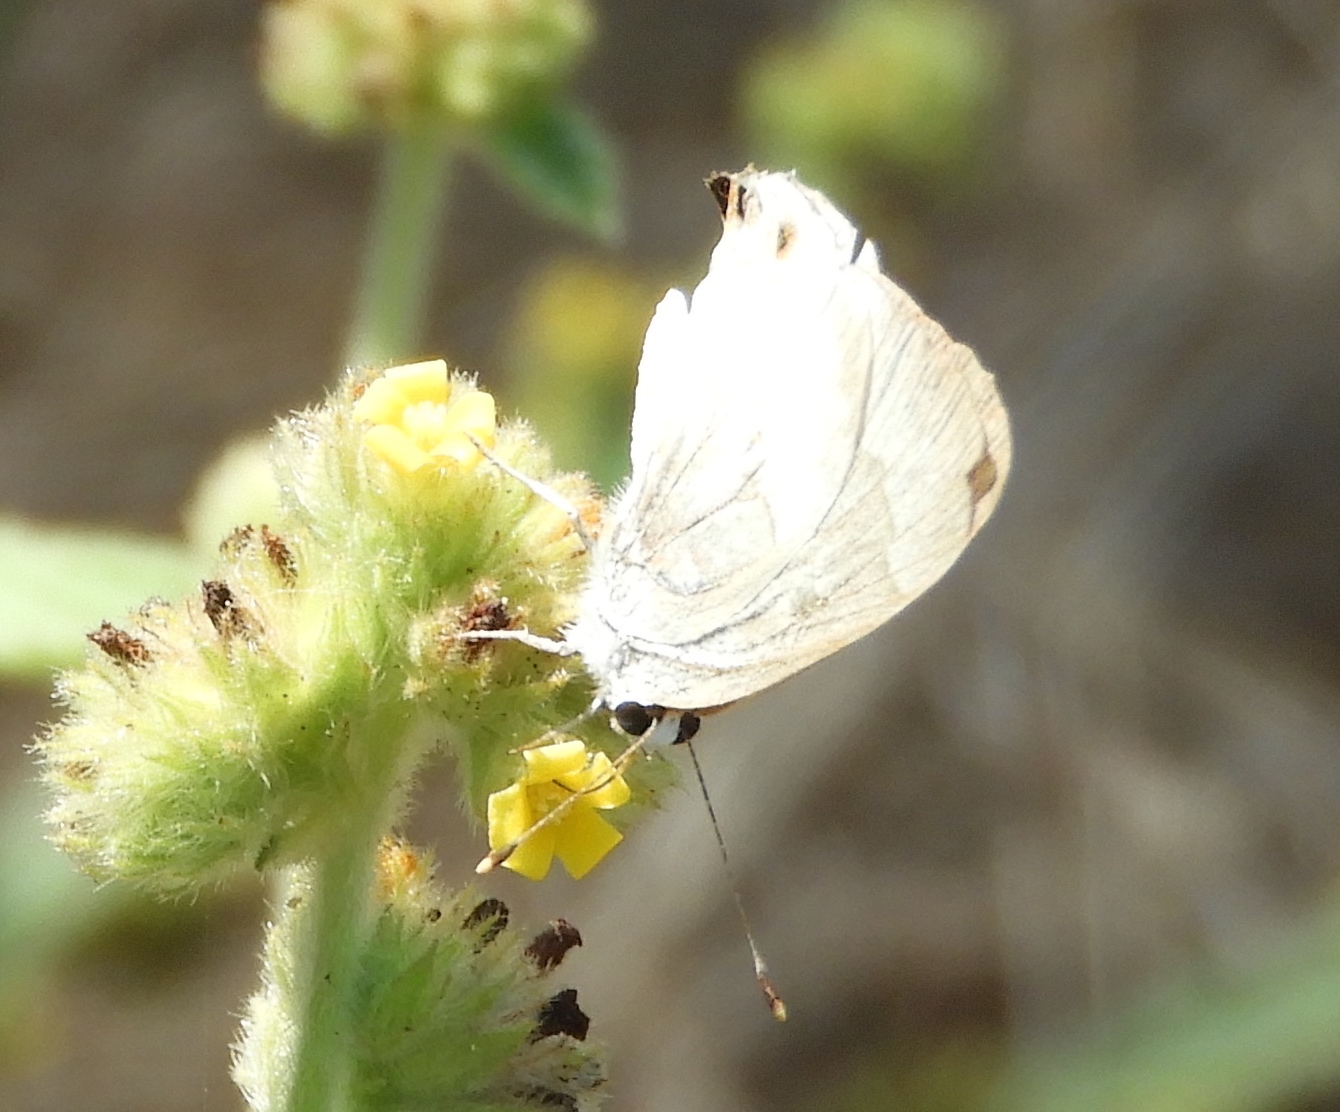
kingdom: Animalia
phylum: Arthropoda
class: Insecta
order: Lepidoptera
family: Lycaenidae
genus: Strymon
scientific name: Strymon albata
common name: White scrub-hairstreak
